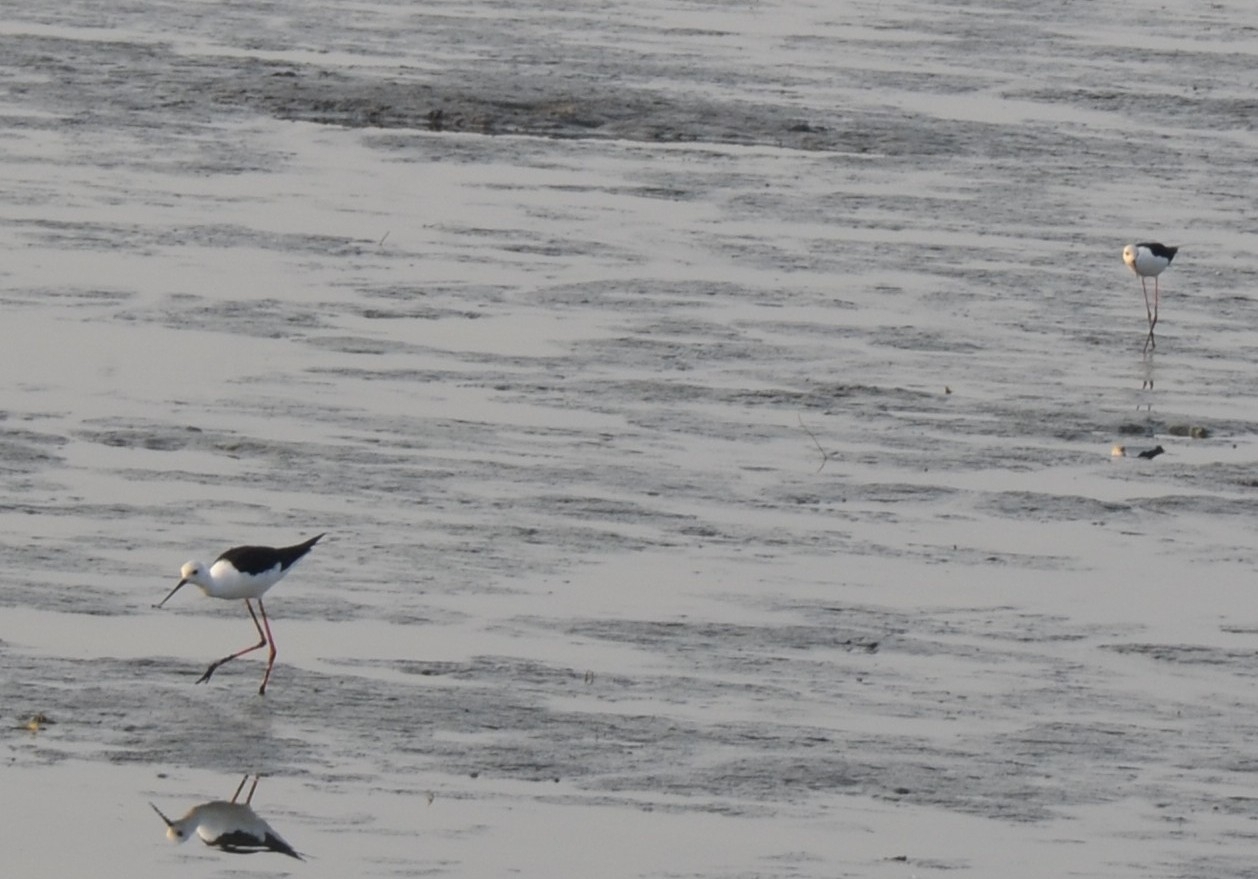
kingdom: Animalia
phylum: Chordata
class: Aves
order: Charadriiformes
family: Recurvirostridae
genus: Himantopus
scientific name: Himantopus himantopus
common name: Black-winged stilt
